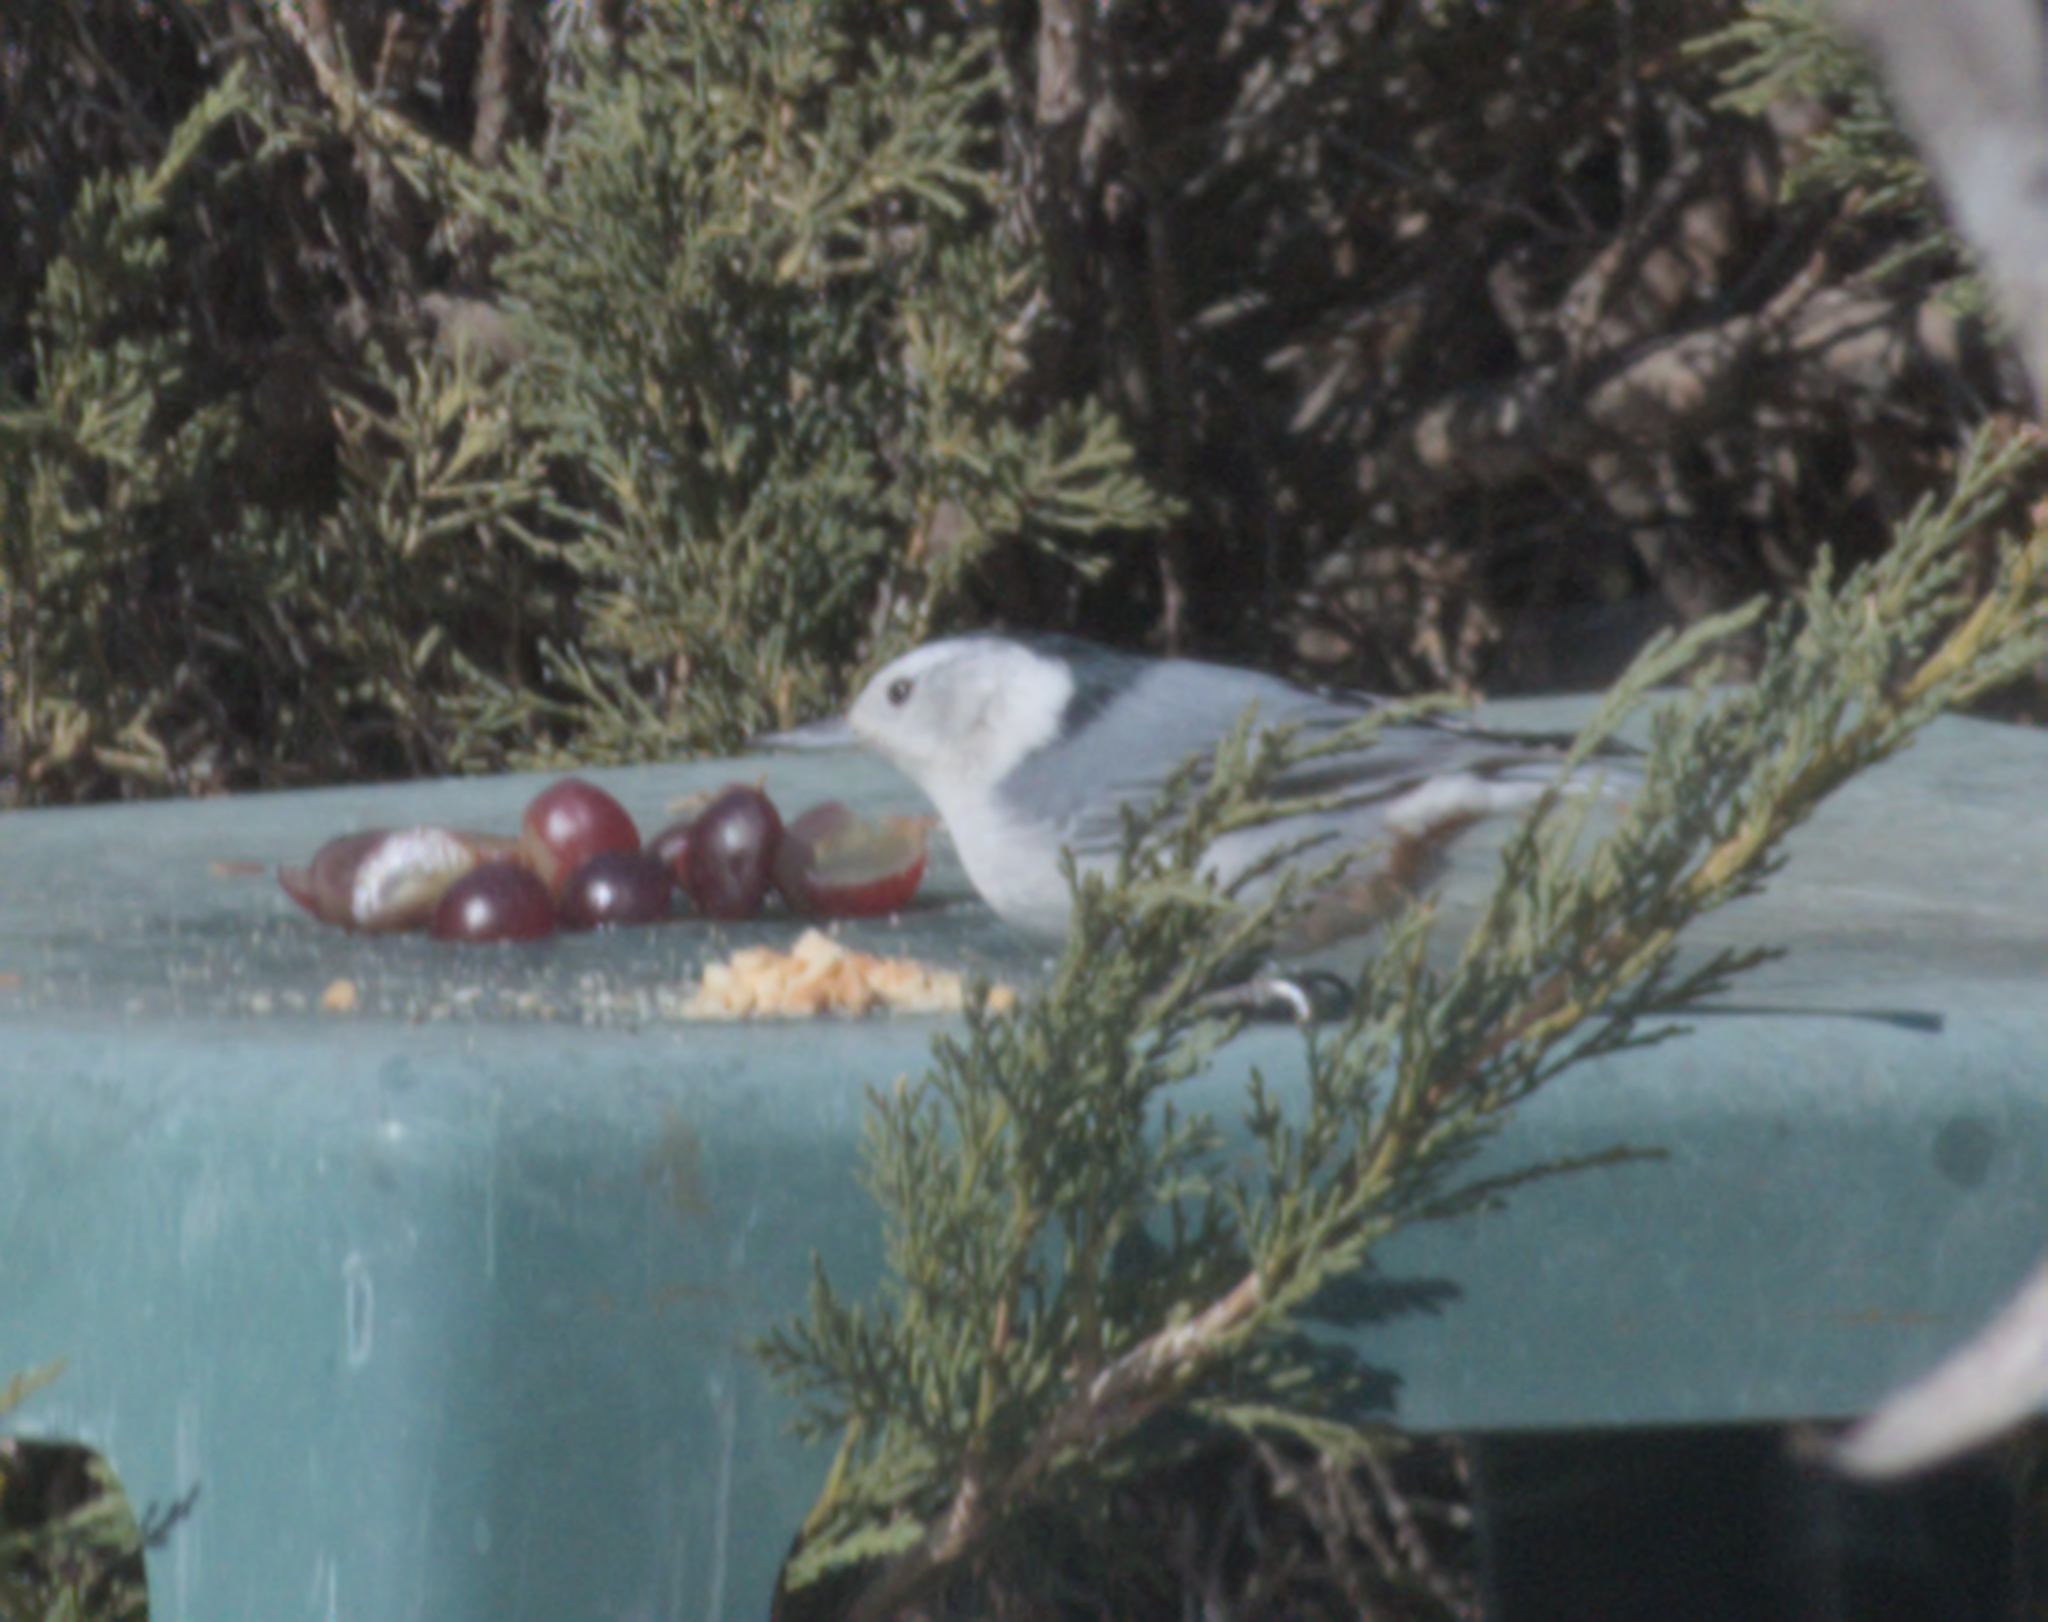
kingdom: Animalia
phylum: Chordata
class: Aves
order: Passeriformes
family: Sittidae
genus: Sitta
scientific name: Sitta carolinensis
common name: White-breasted nuthatch
